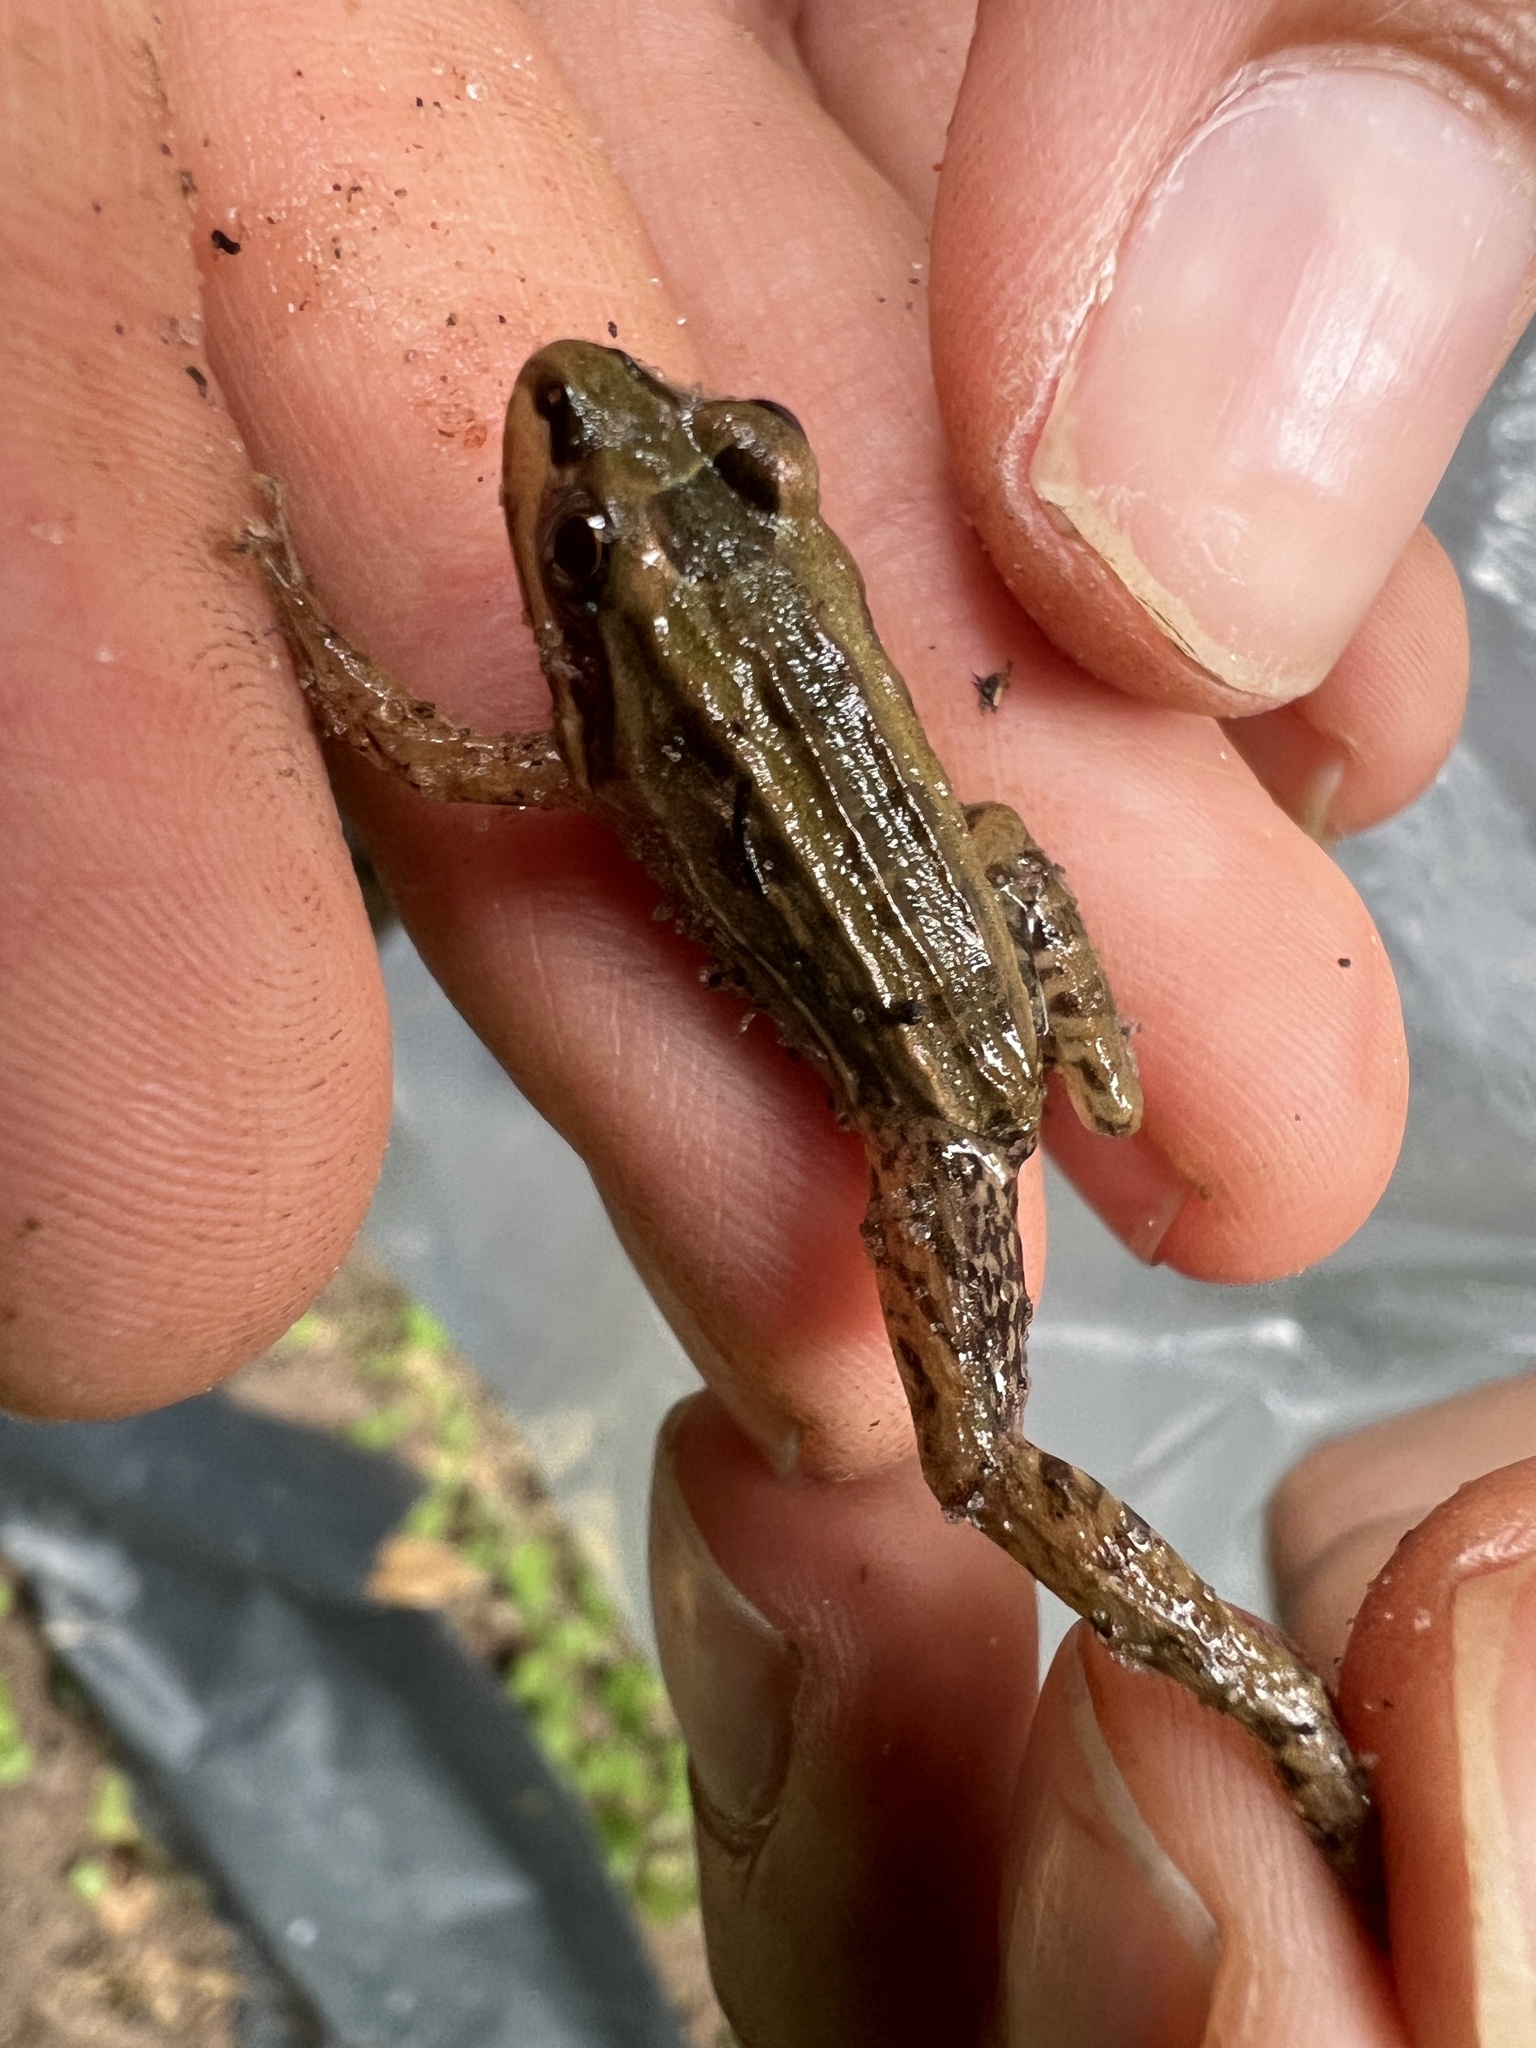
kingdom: Animalia
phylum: Chordata
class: Amphibia
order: Anura
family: Leptodactylidae
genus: Leptodactylus
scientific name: Leptodactylus elenae
